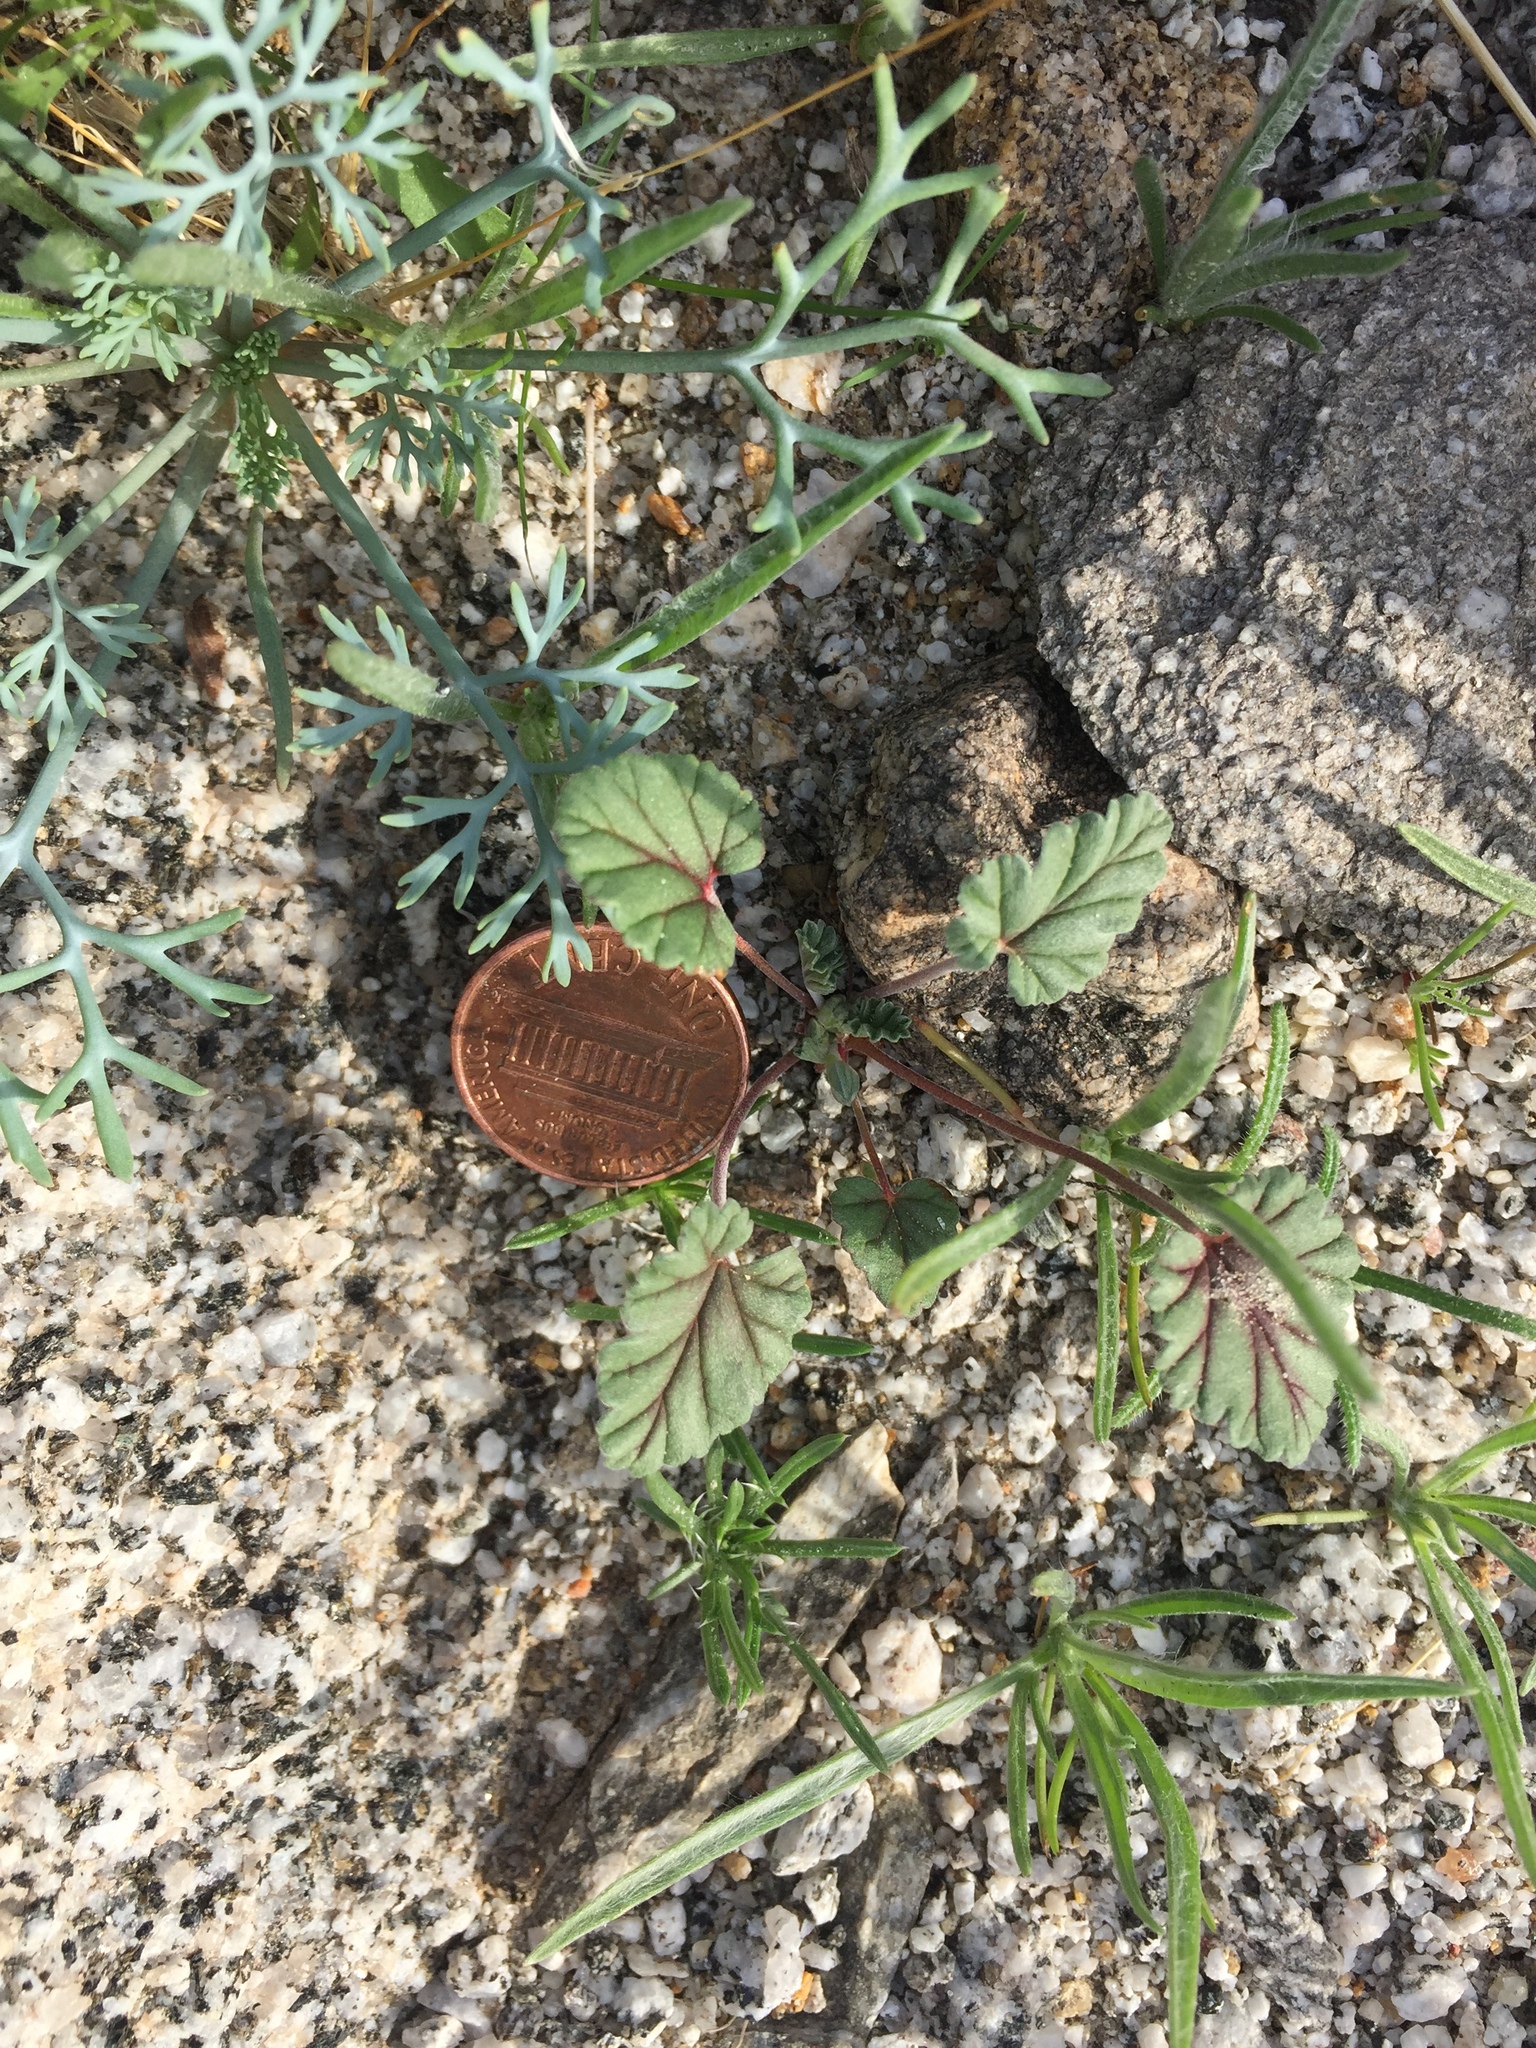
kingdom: Plantae
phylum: Tracheophyta
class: Magnoliopsida
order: Geraniales
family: Geraniaceae
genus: Erodium
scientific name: Erodium texanum
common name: Texas stork's-bill
